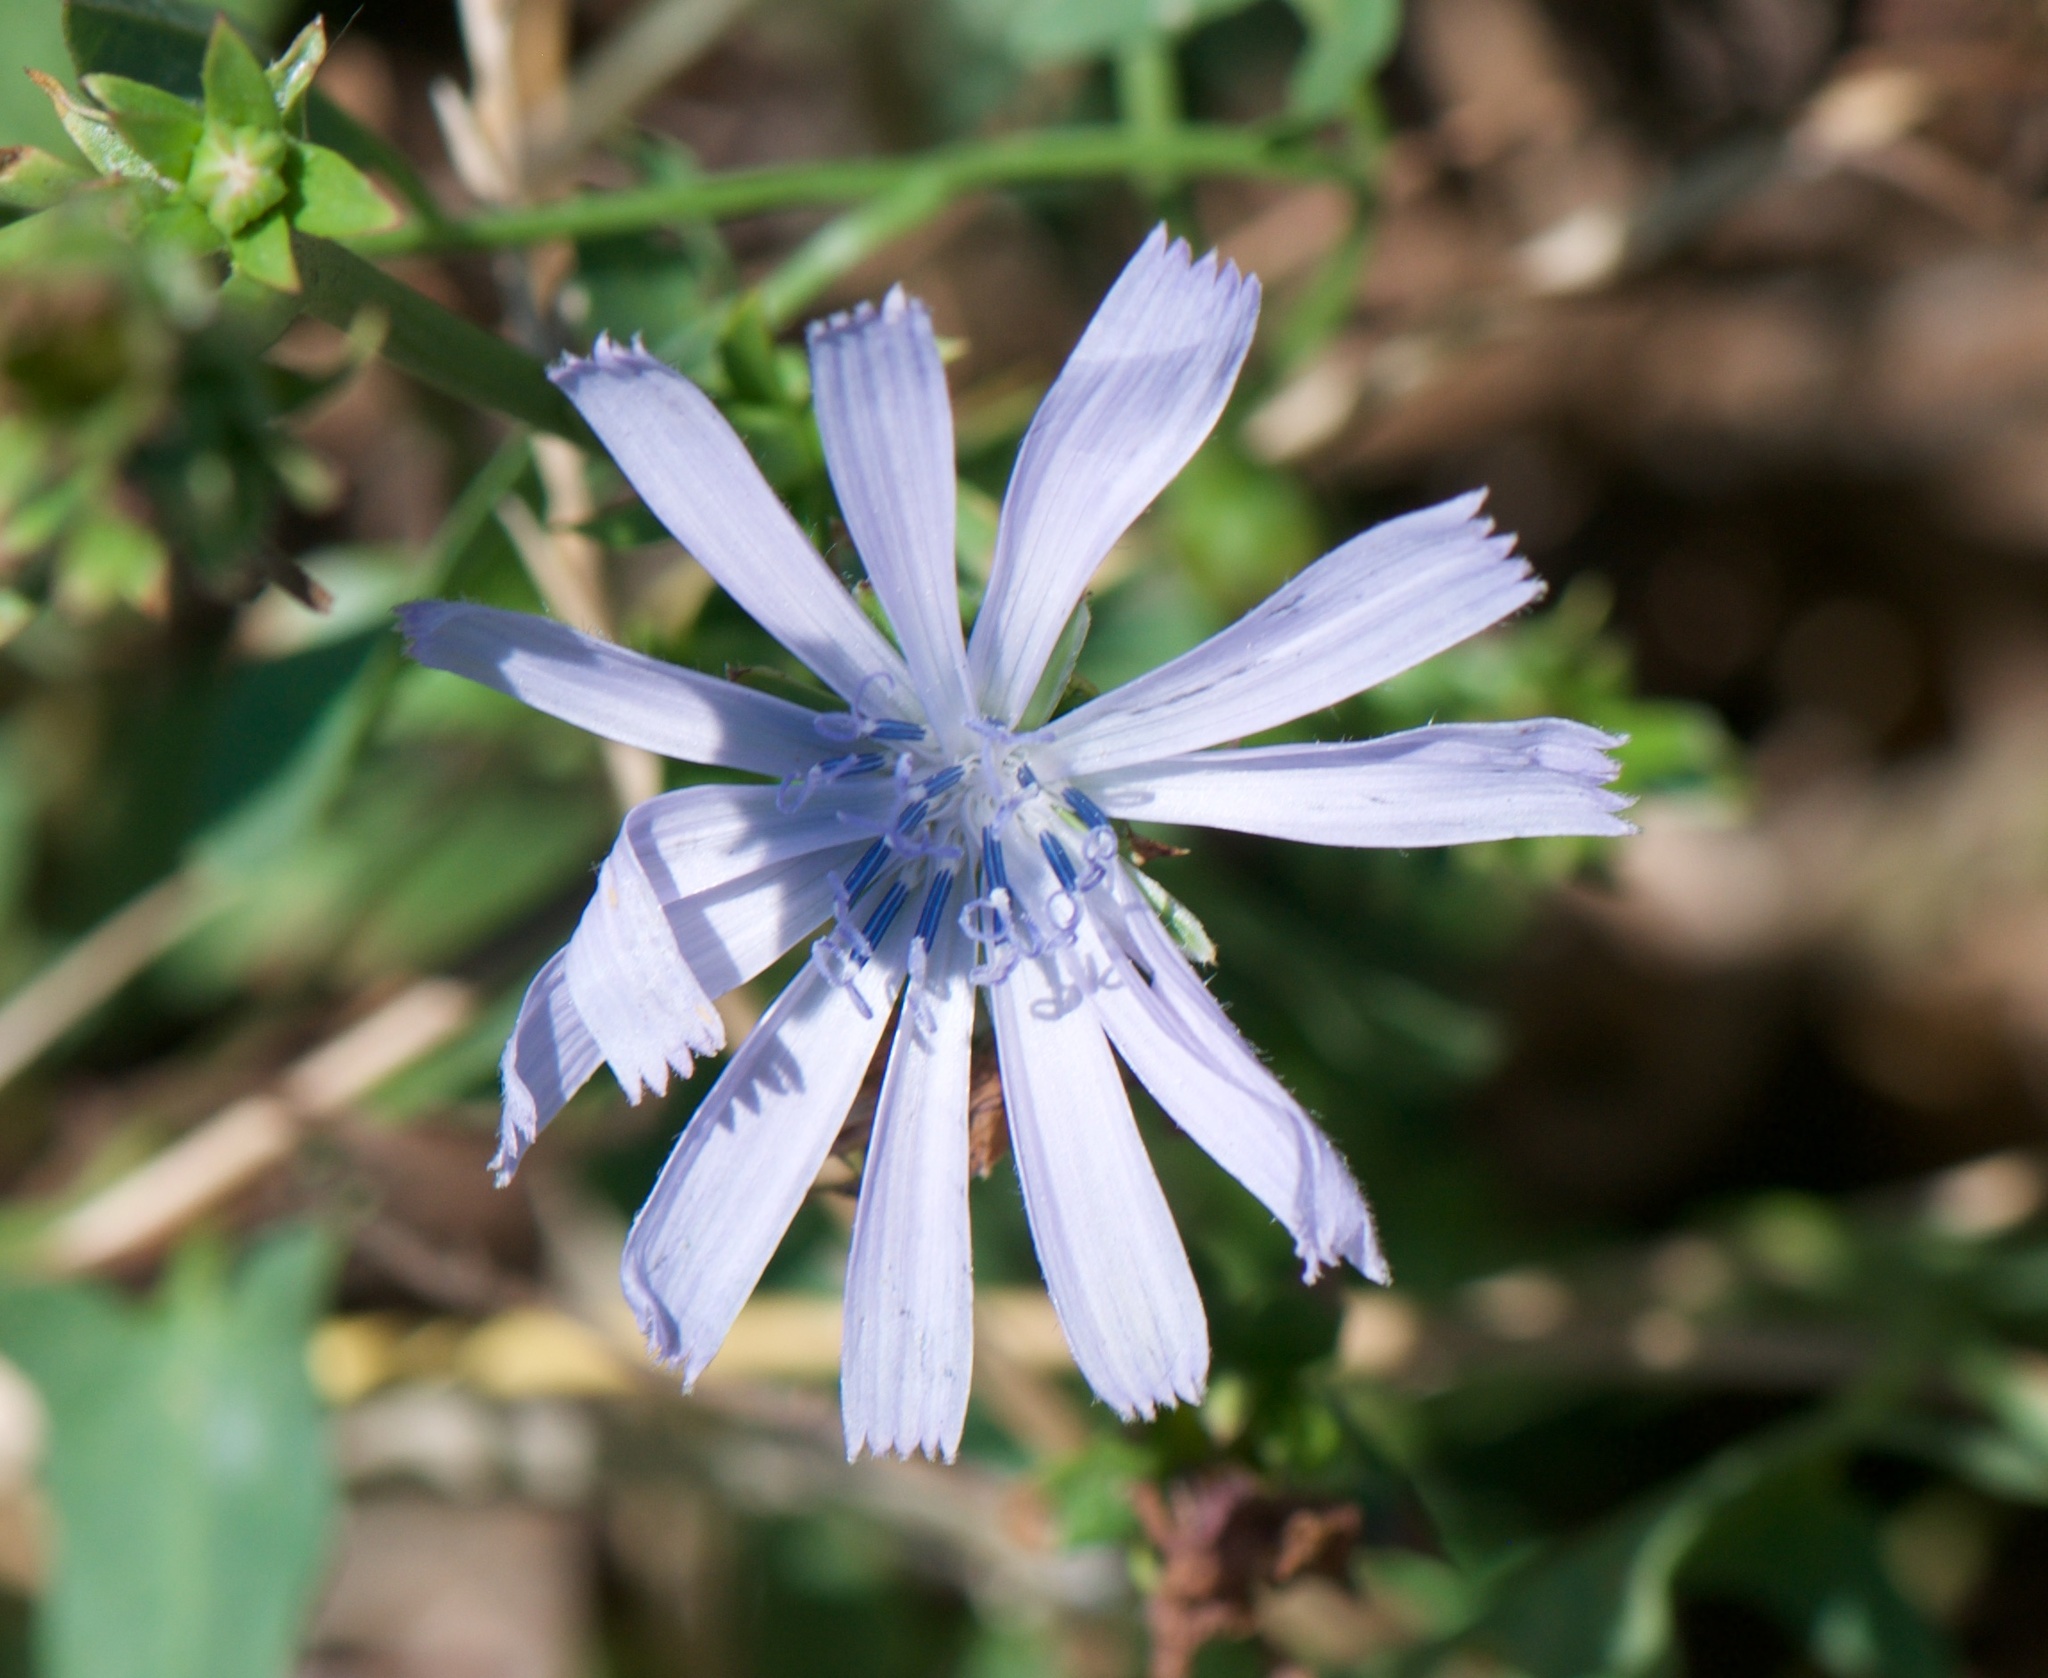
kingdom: Plantae
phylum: Tracheophyta
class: Magnoliopsida
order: Asterales
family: Asteraceae
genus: Cichorium
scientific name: Cichorium intybus
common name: Chicory
